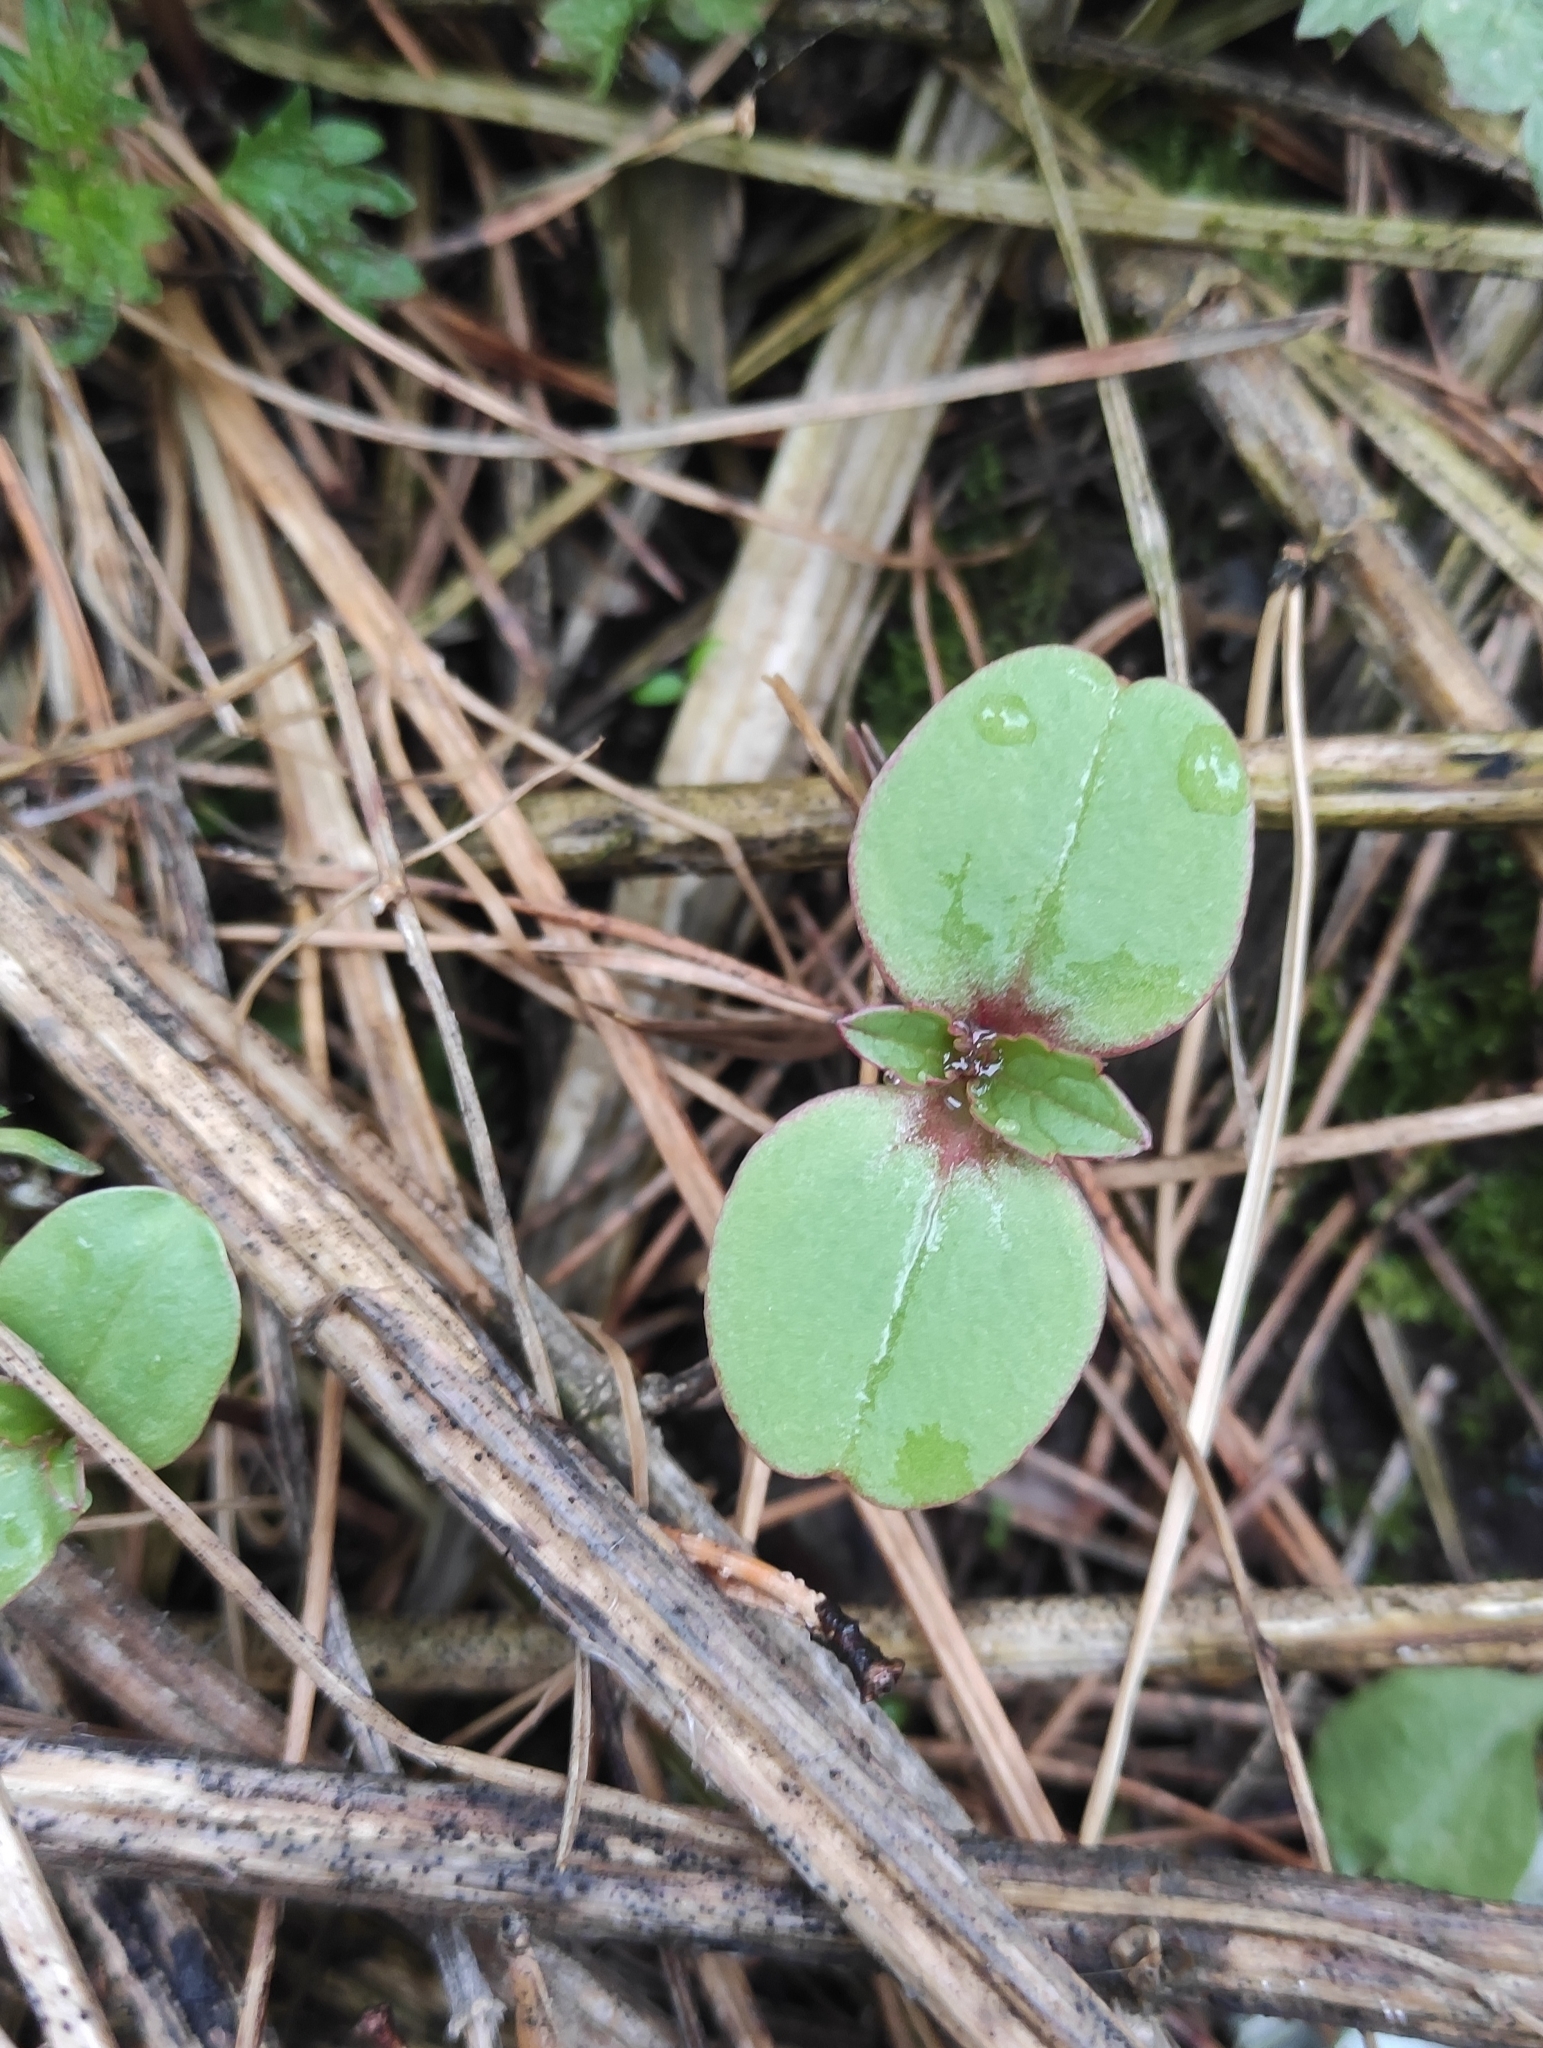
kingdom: Plantae
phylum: Tracheophyta
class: Magnoliopsida
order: Ericales
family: Balsaminaceae
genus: Impatiens
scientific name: Impatiens glandulifera
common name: Himalayan balsam
